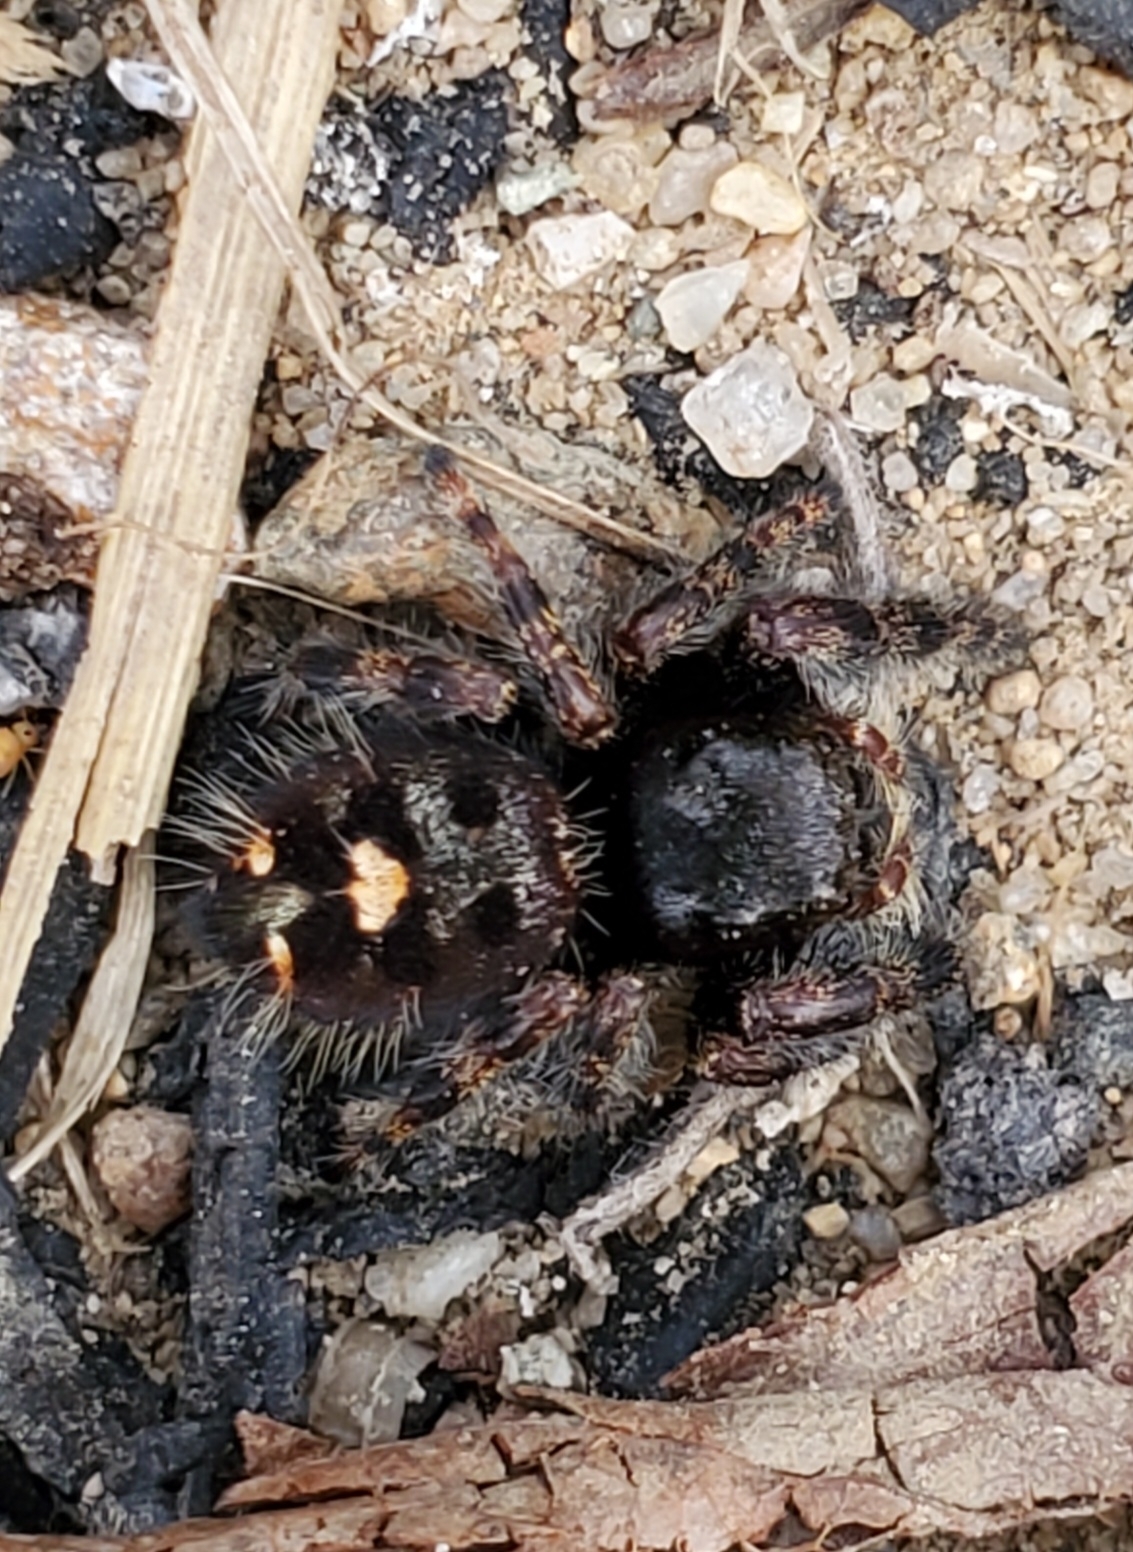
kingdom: Animalia
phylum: Arthropoda
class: Arachnida
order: Araneae
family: Salticidae
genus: Phidippus
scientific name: Phidippus audax
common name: Bold jumper
